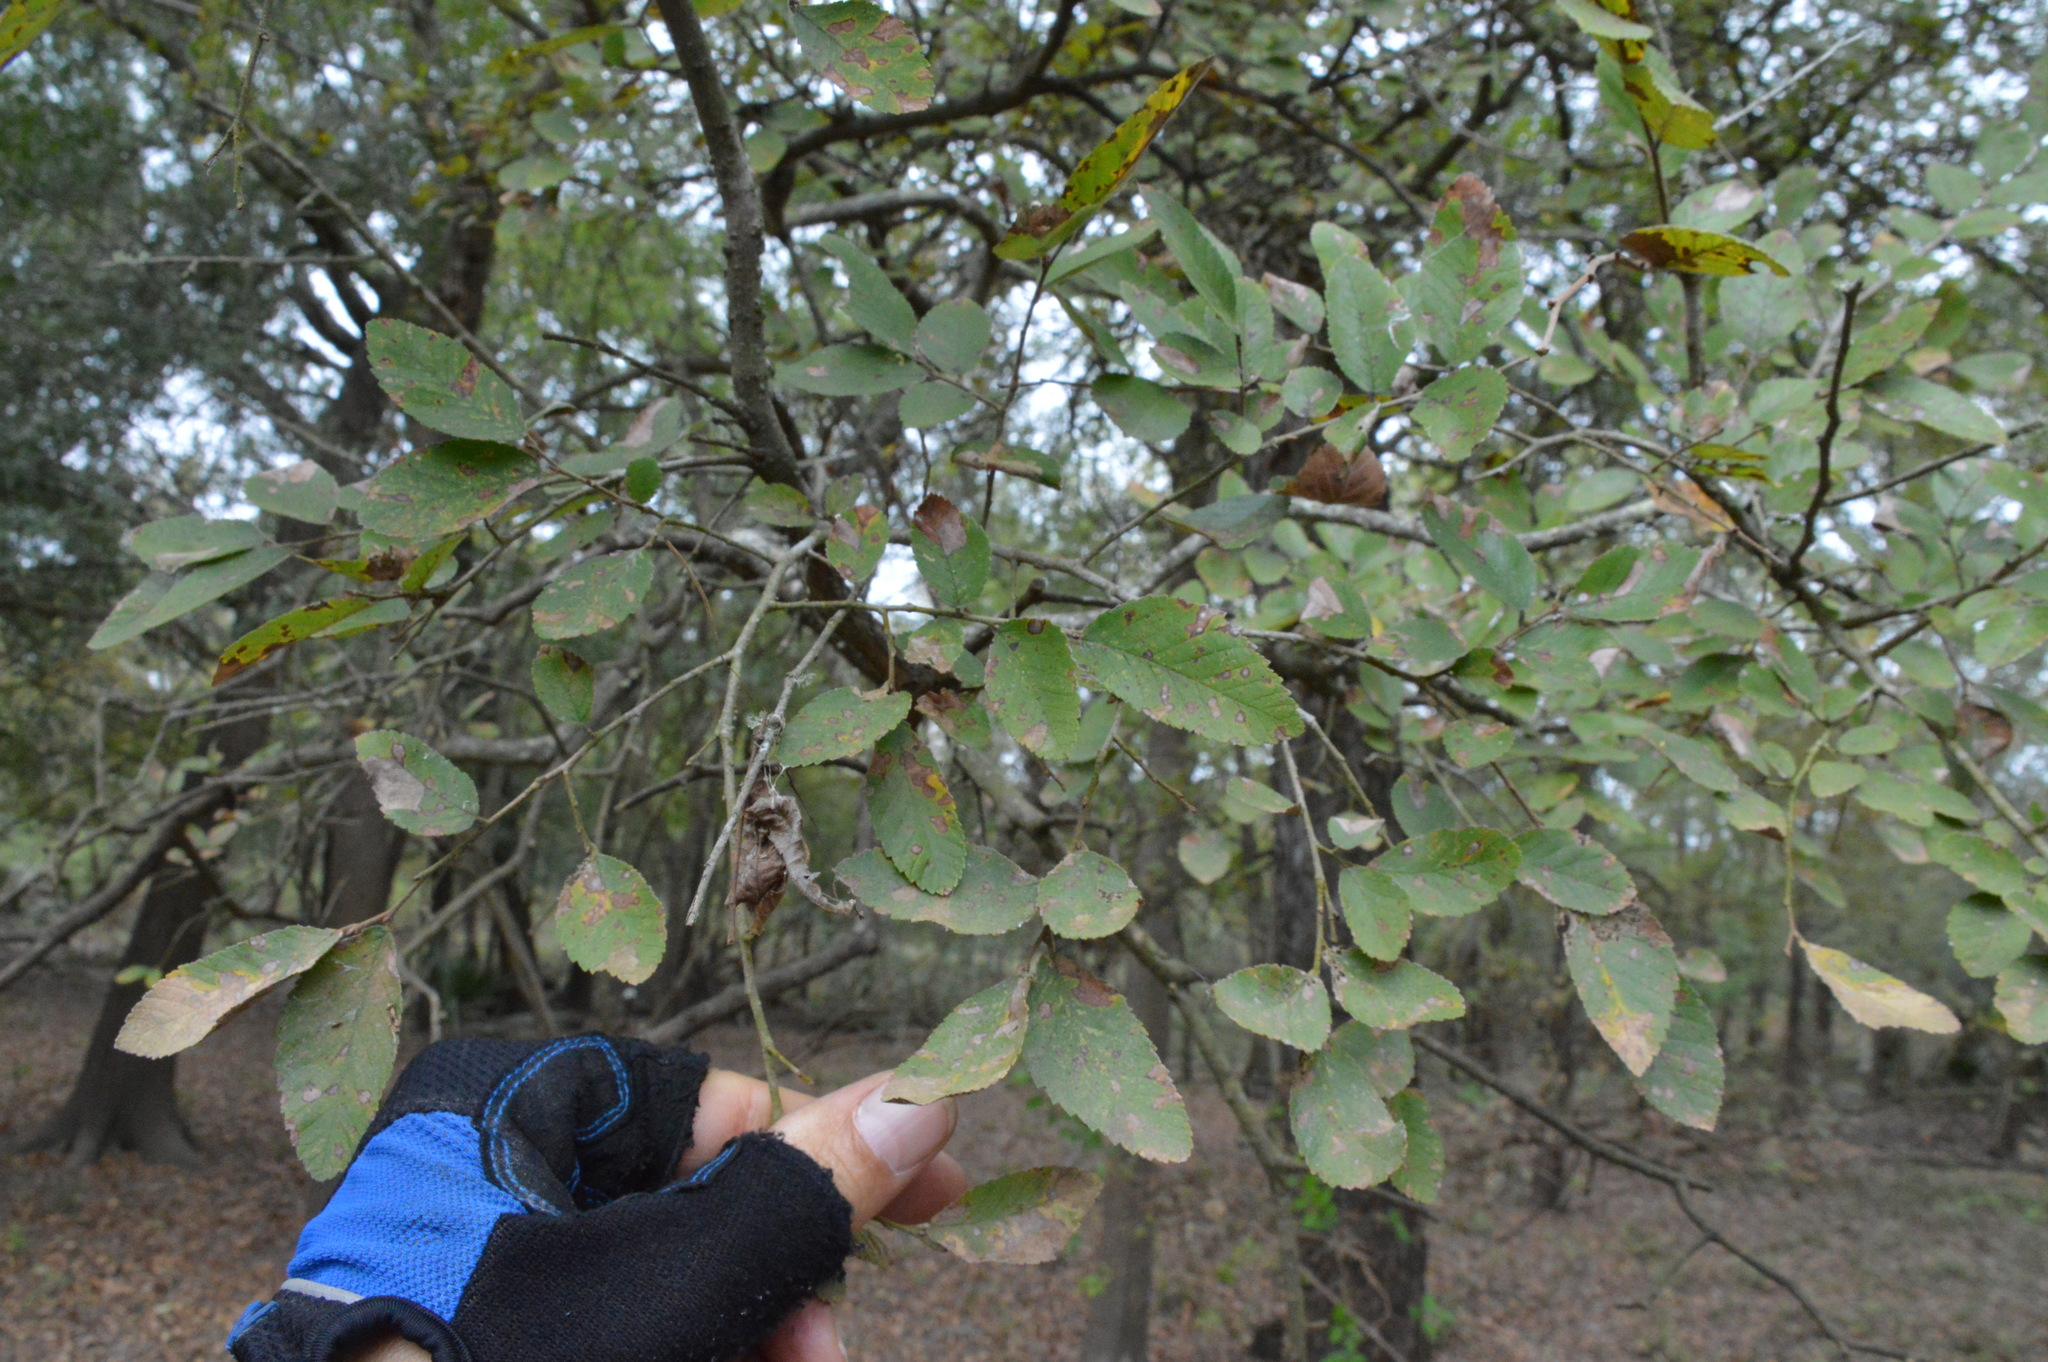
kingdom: Plantae
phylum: Tracheophyta
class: Magnoliopsida
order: Rosales
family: Ulmaceae
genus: Ulmus
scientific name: Ulmus crassifolia
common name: Basket elm
